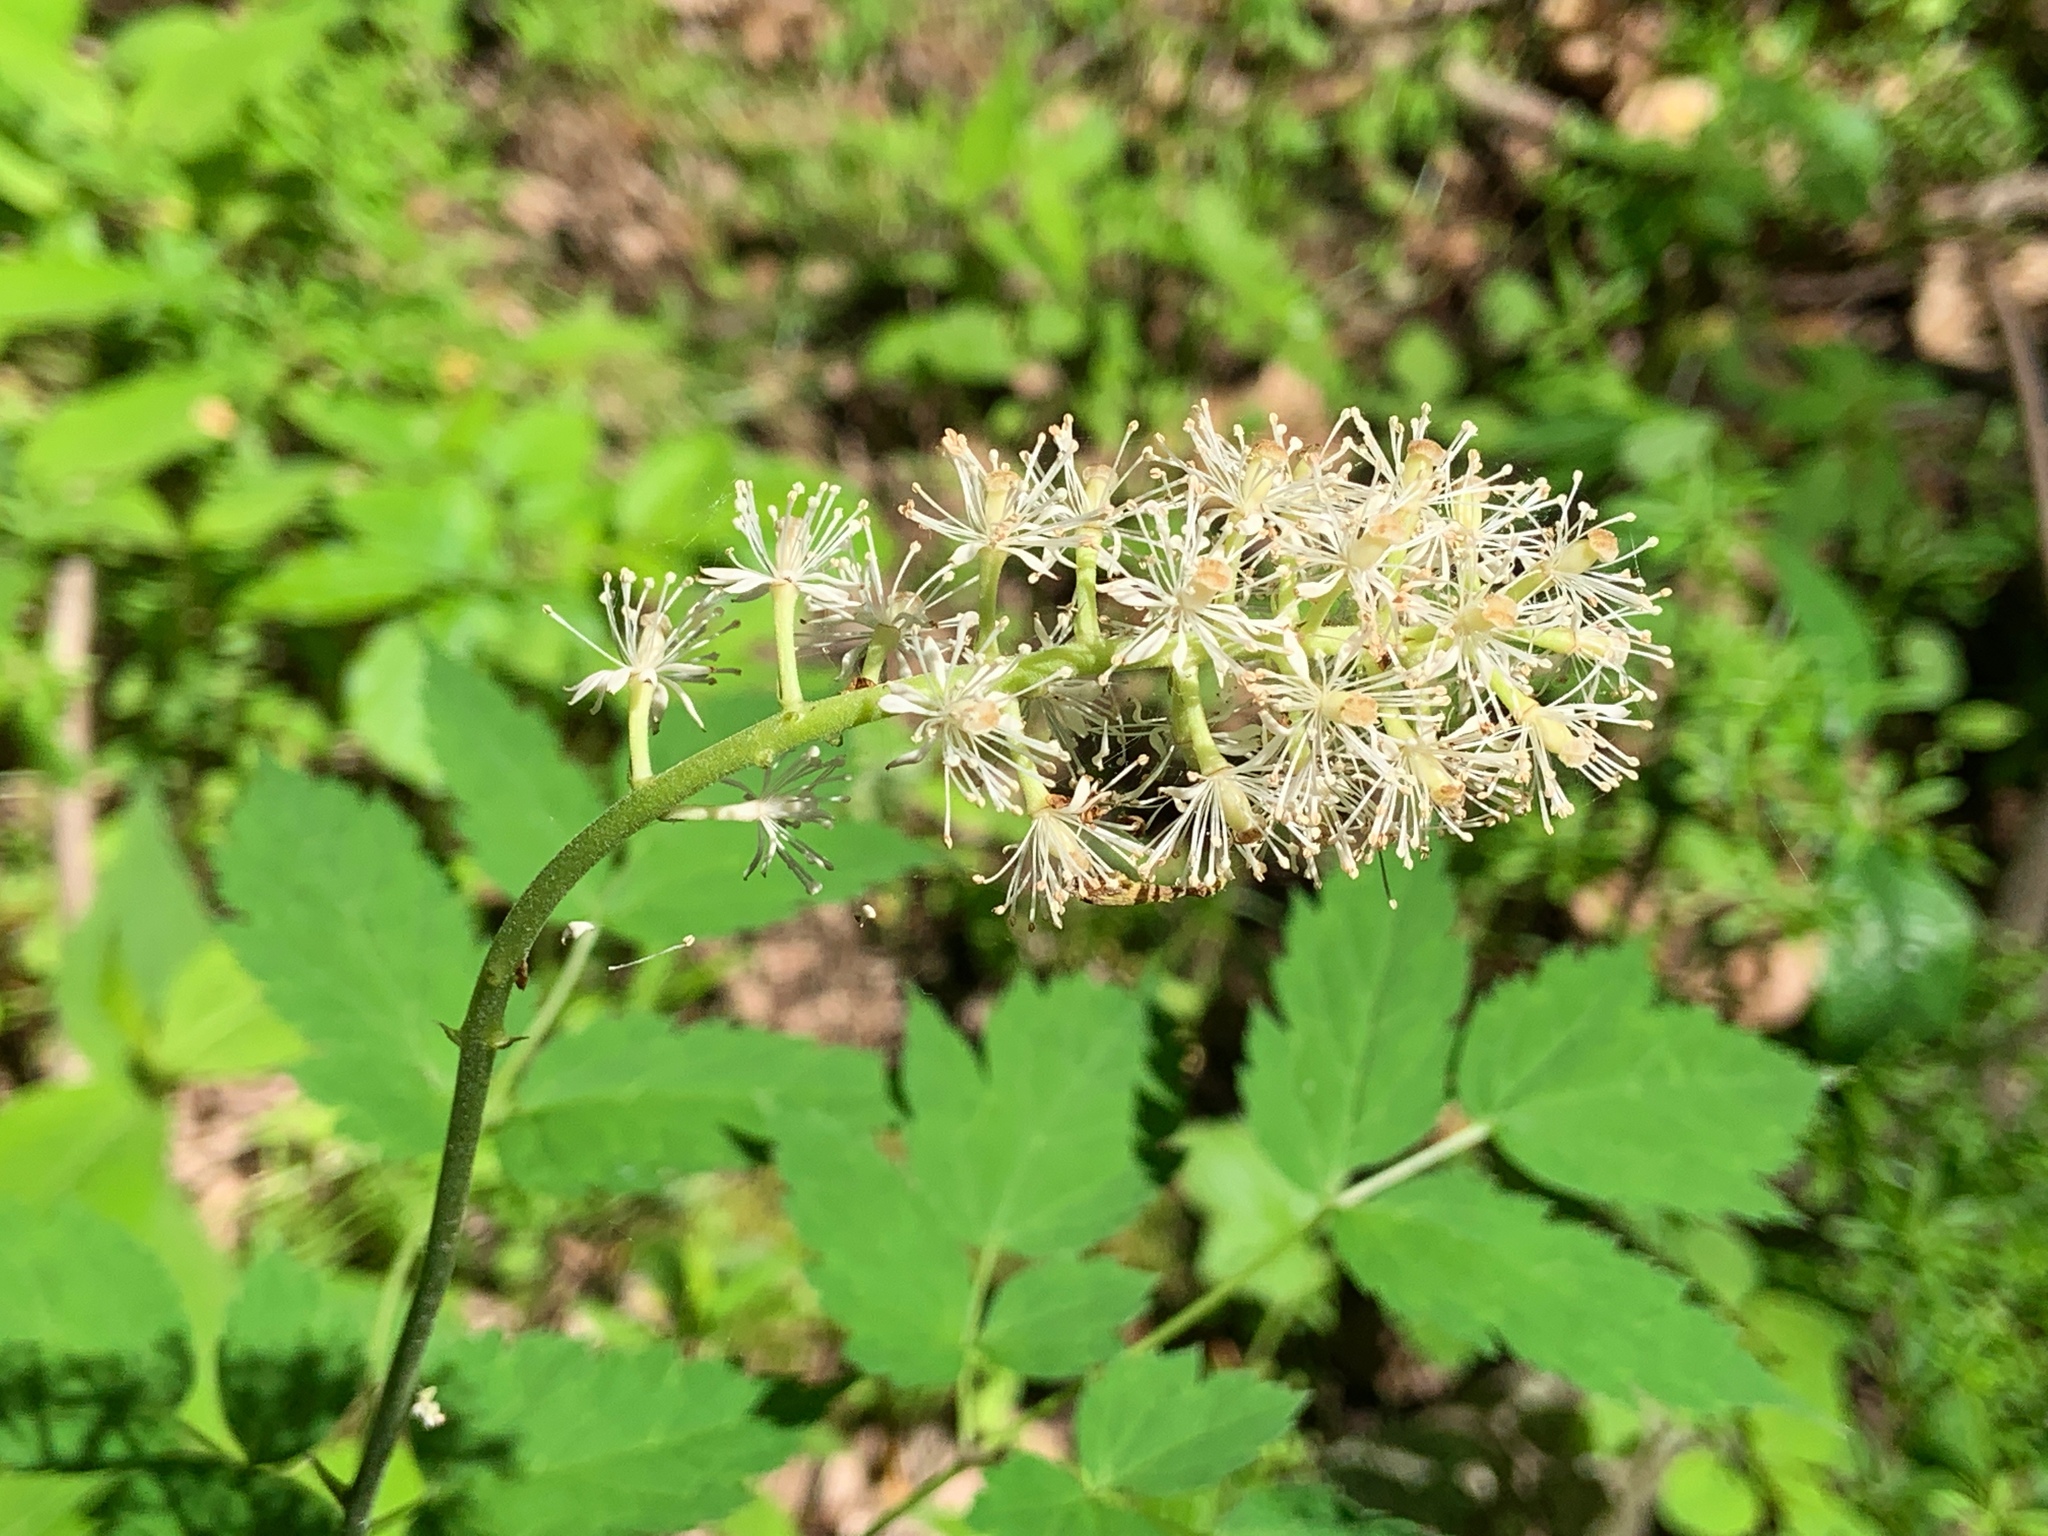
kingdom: Plantae
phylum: Tracheophyta
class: Magnoliopsida
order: Ranunculales
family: Ranunculaceae
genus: Actaea
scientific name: Actaea pachypoda
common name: Doll's-eyes
